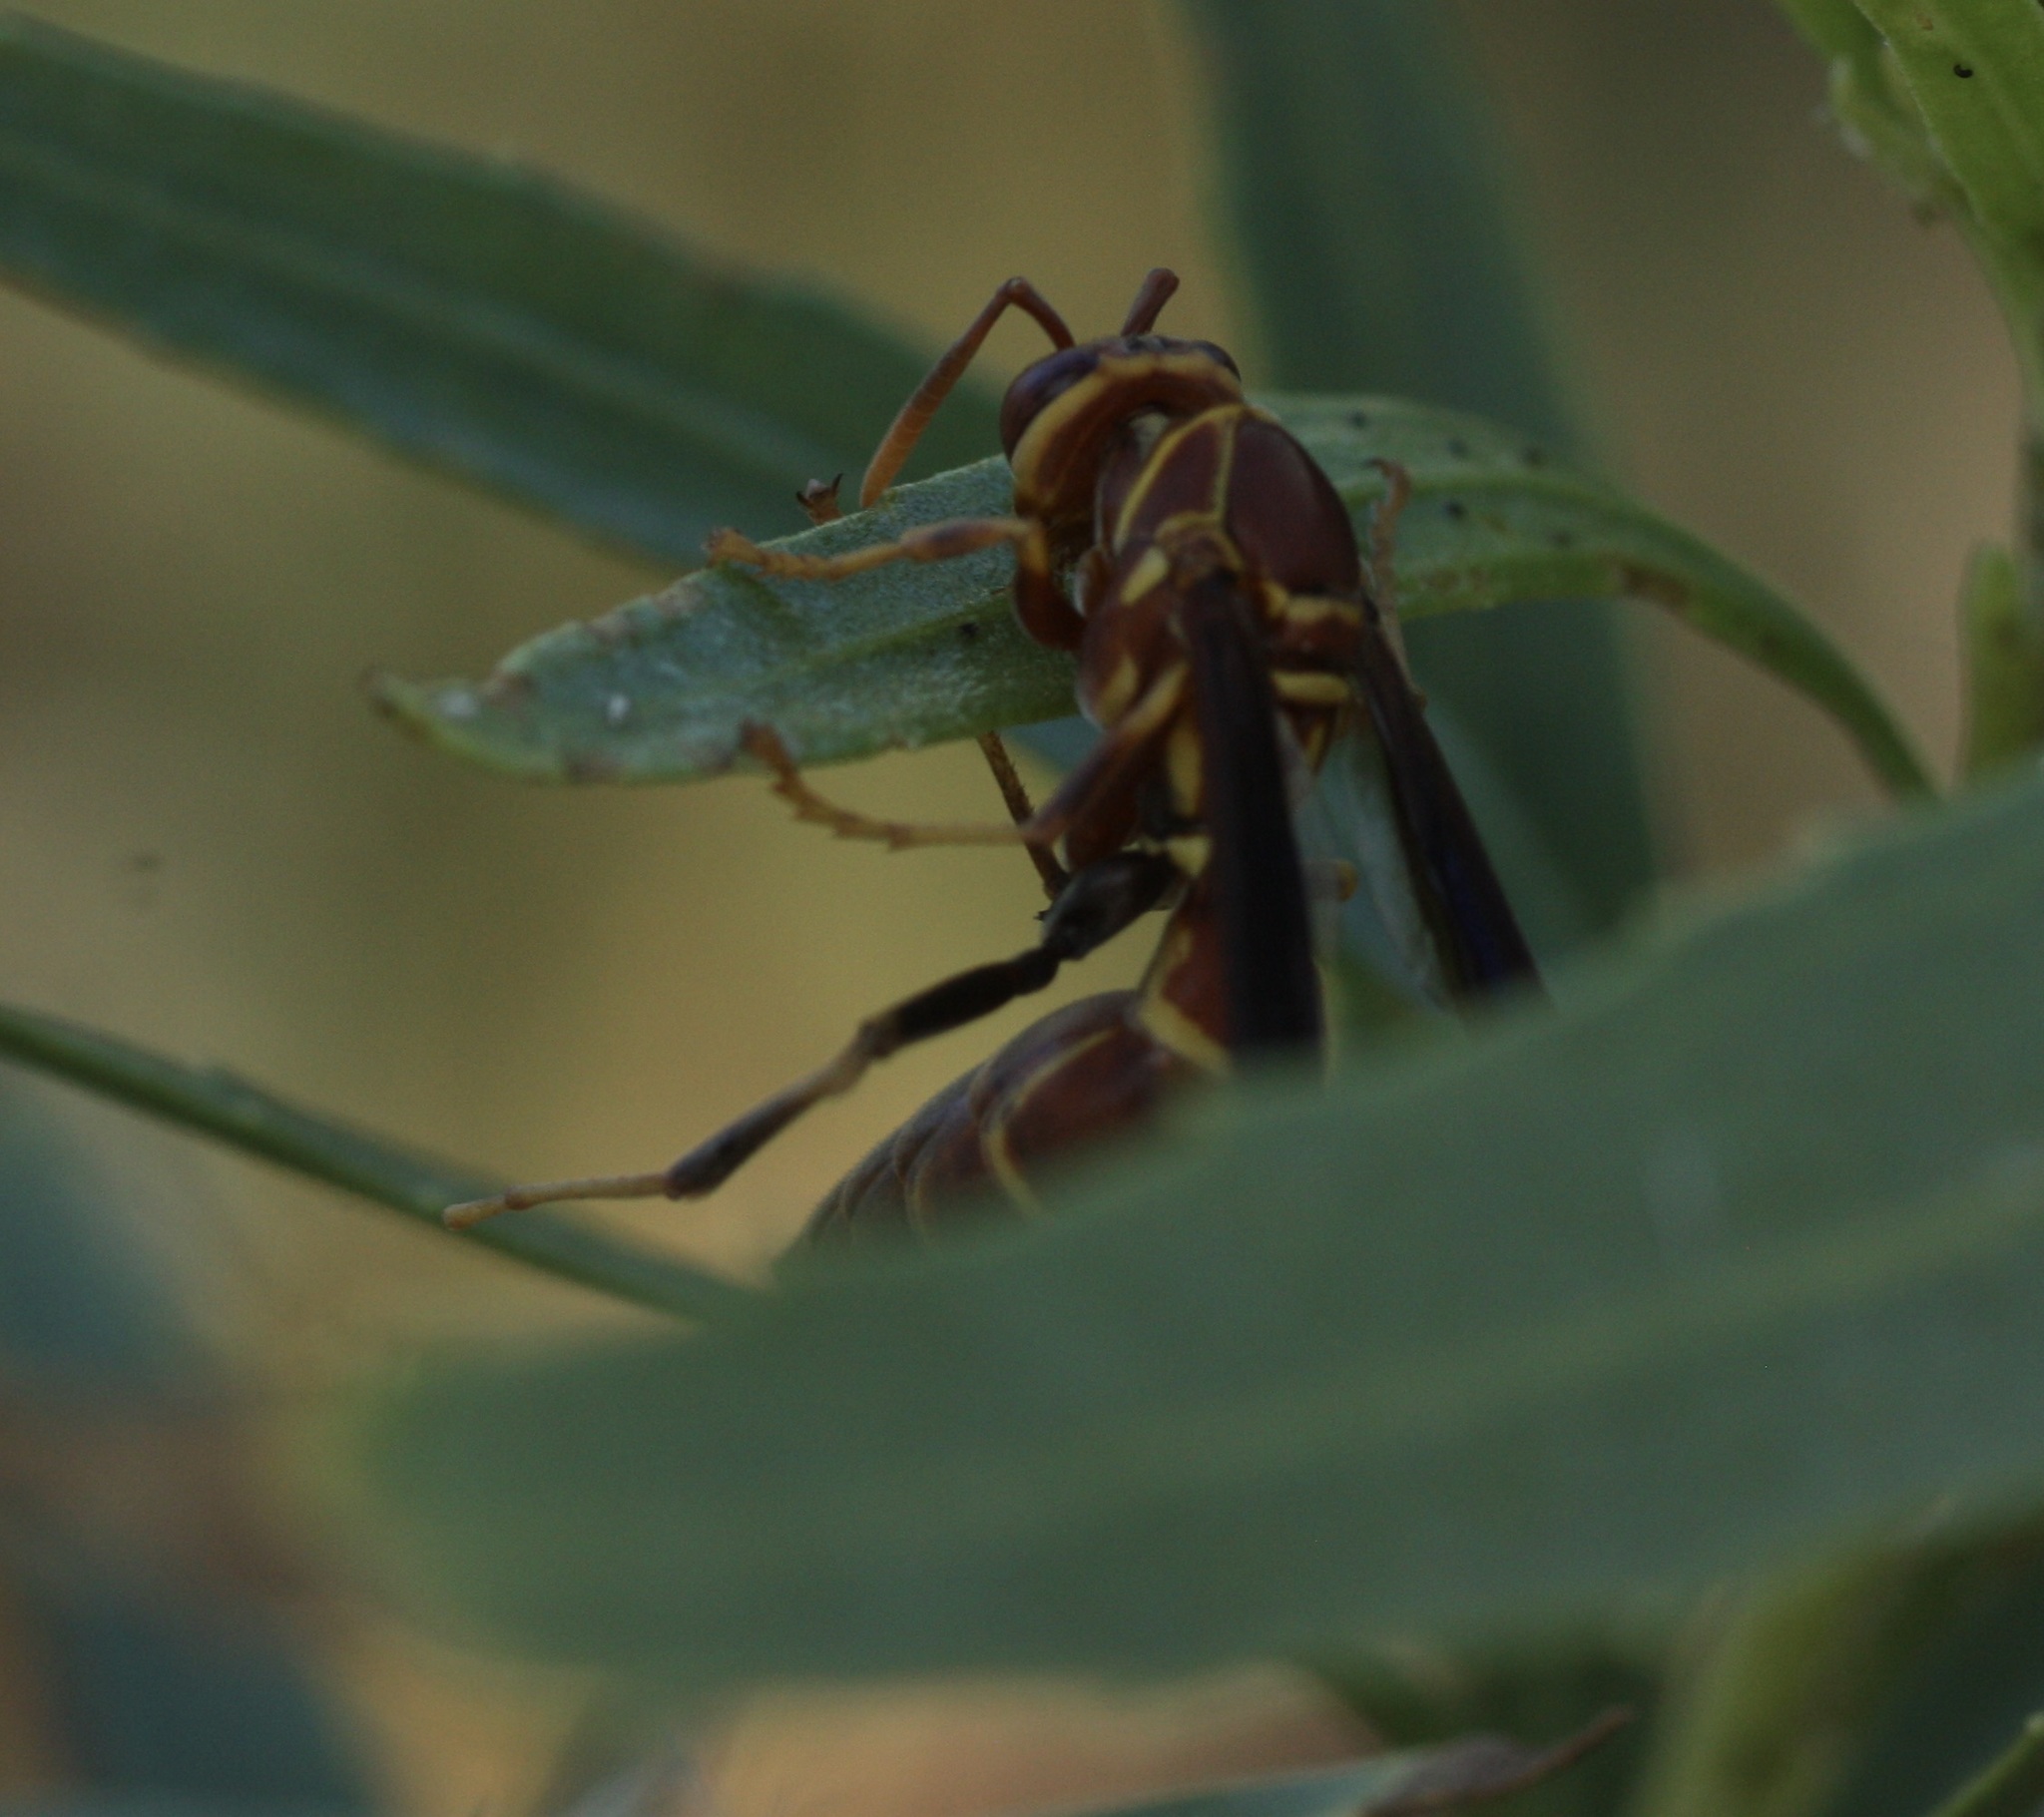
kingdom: Animalia
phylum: Arthropoda
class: Insecta
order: Hymenoptera
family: Eumenidae
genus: Polistes
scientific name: Polistes arizonensis
